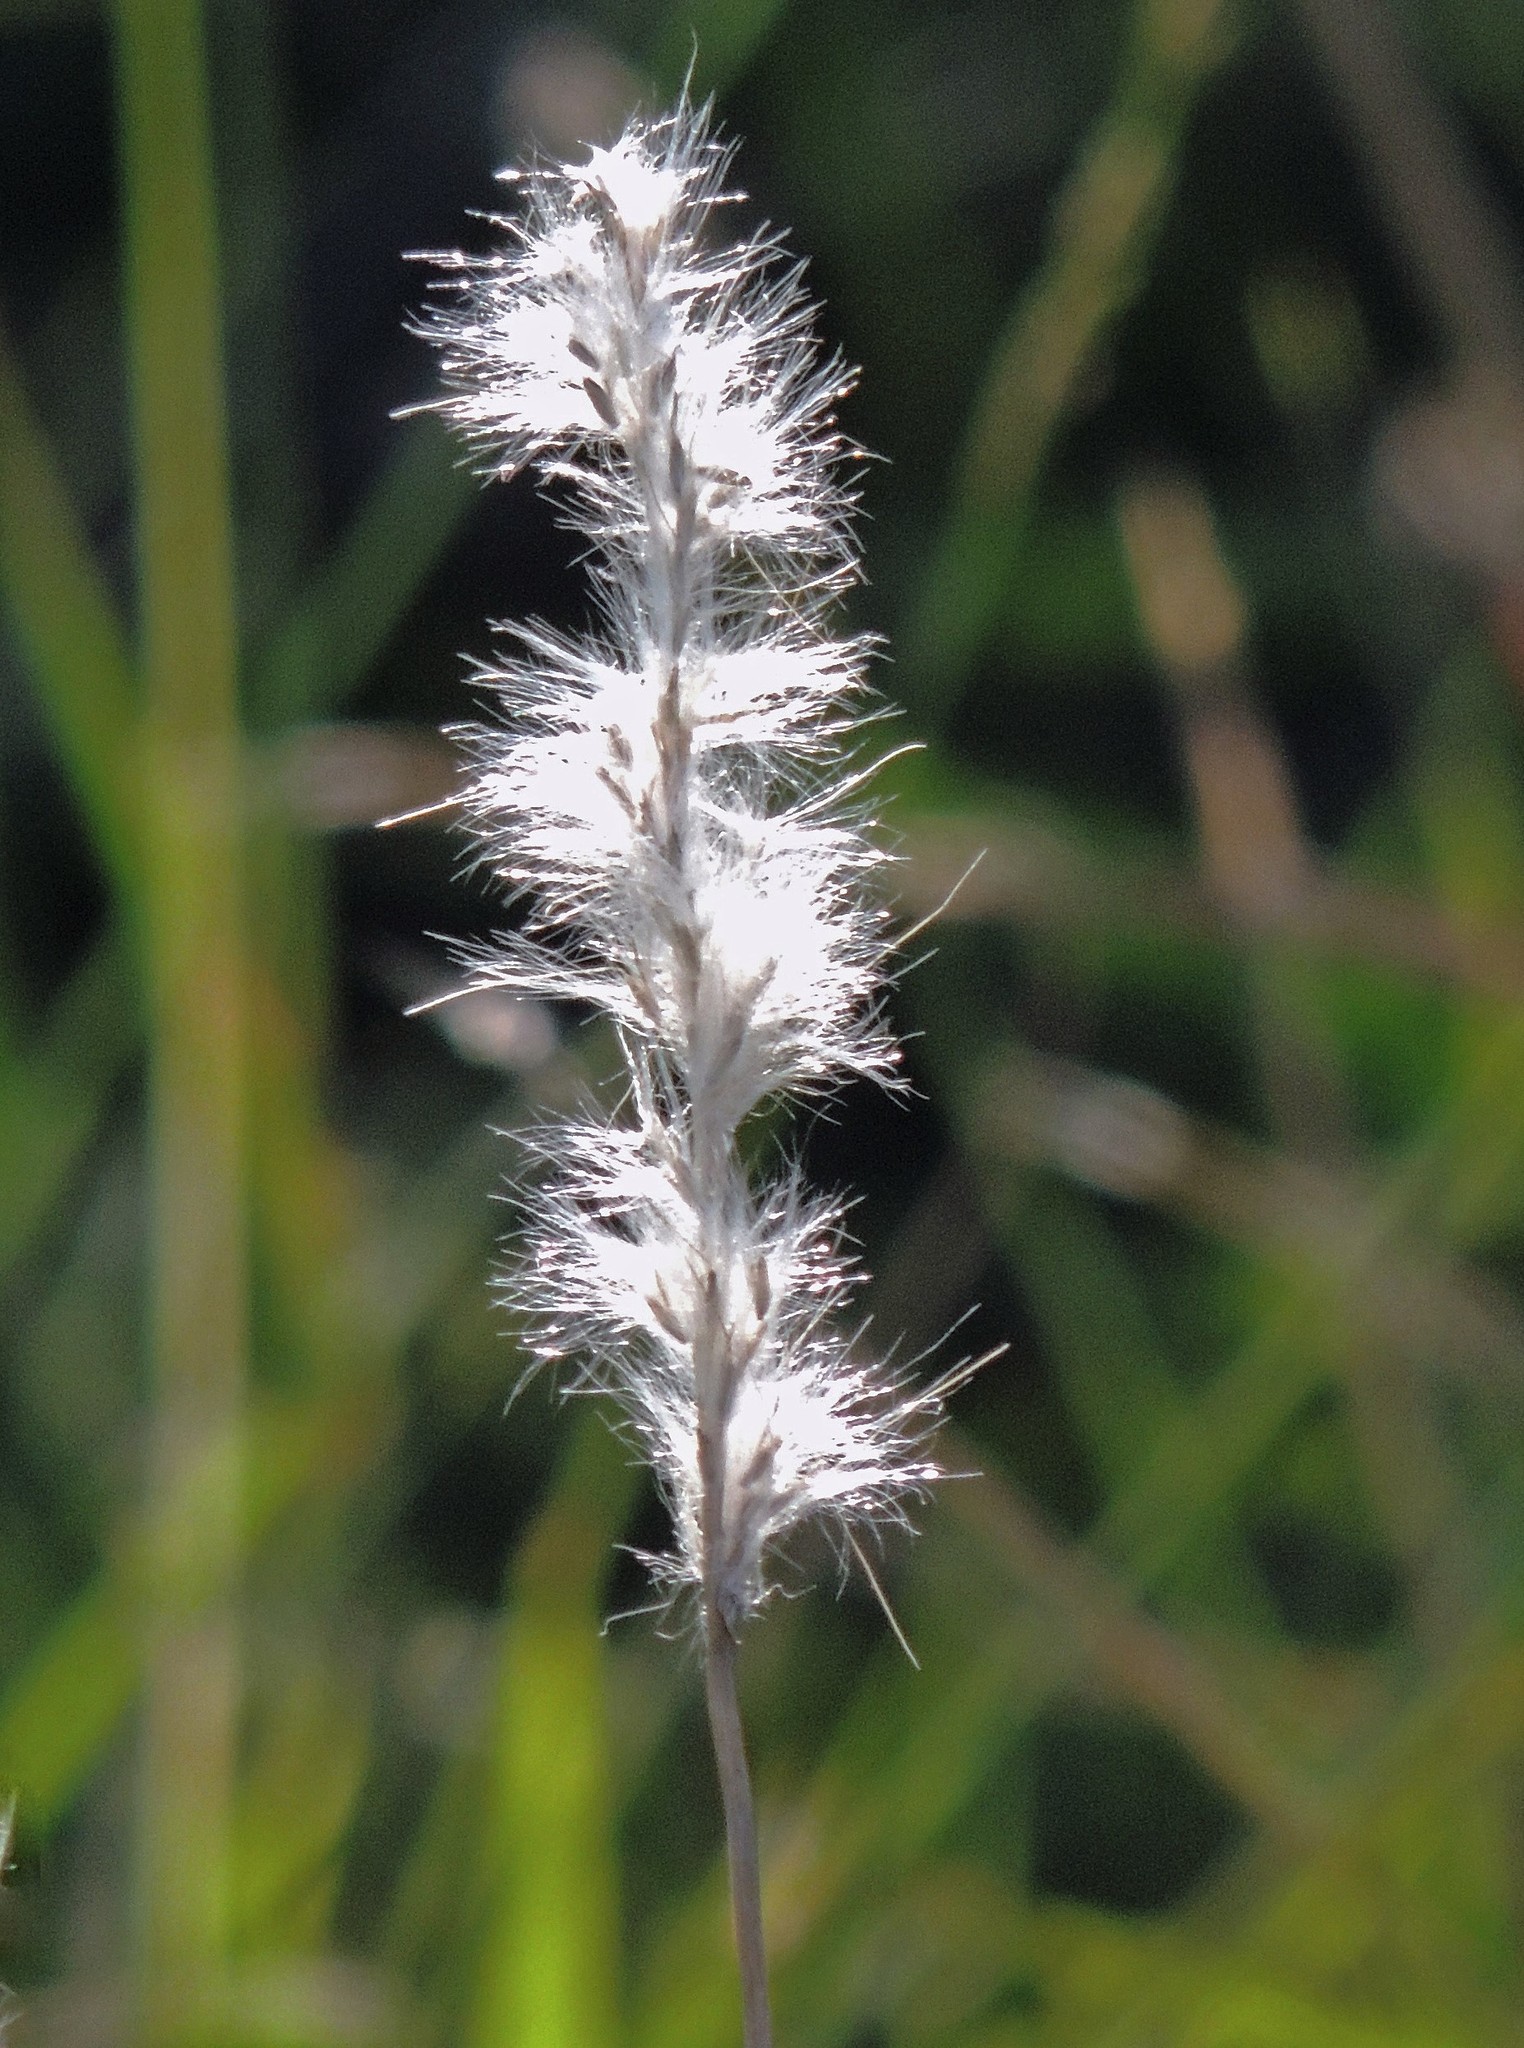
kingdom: Plantae
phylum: Tracheophyta
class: Liliopsida
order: Poales
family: Poaceae
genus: Bothriochloa
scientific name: Bothriochloa laguroides
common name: Silver bluestem
